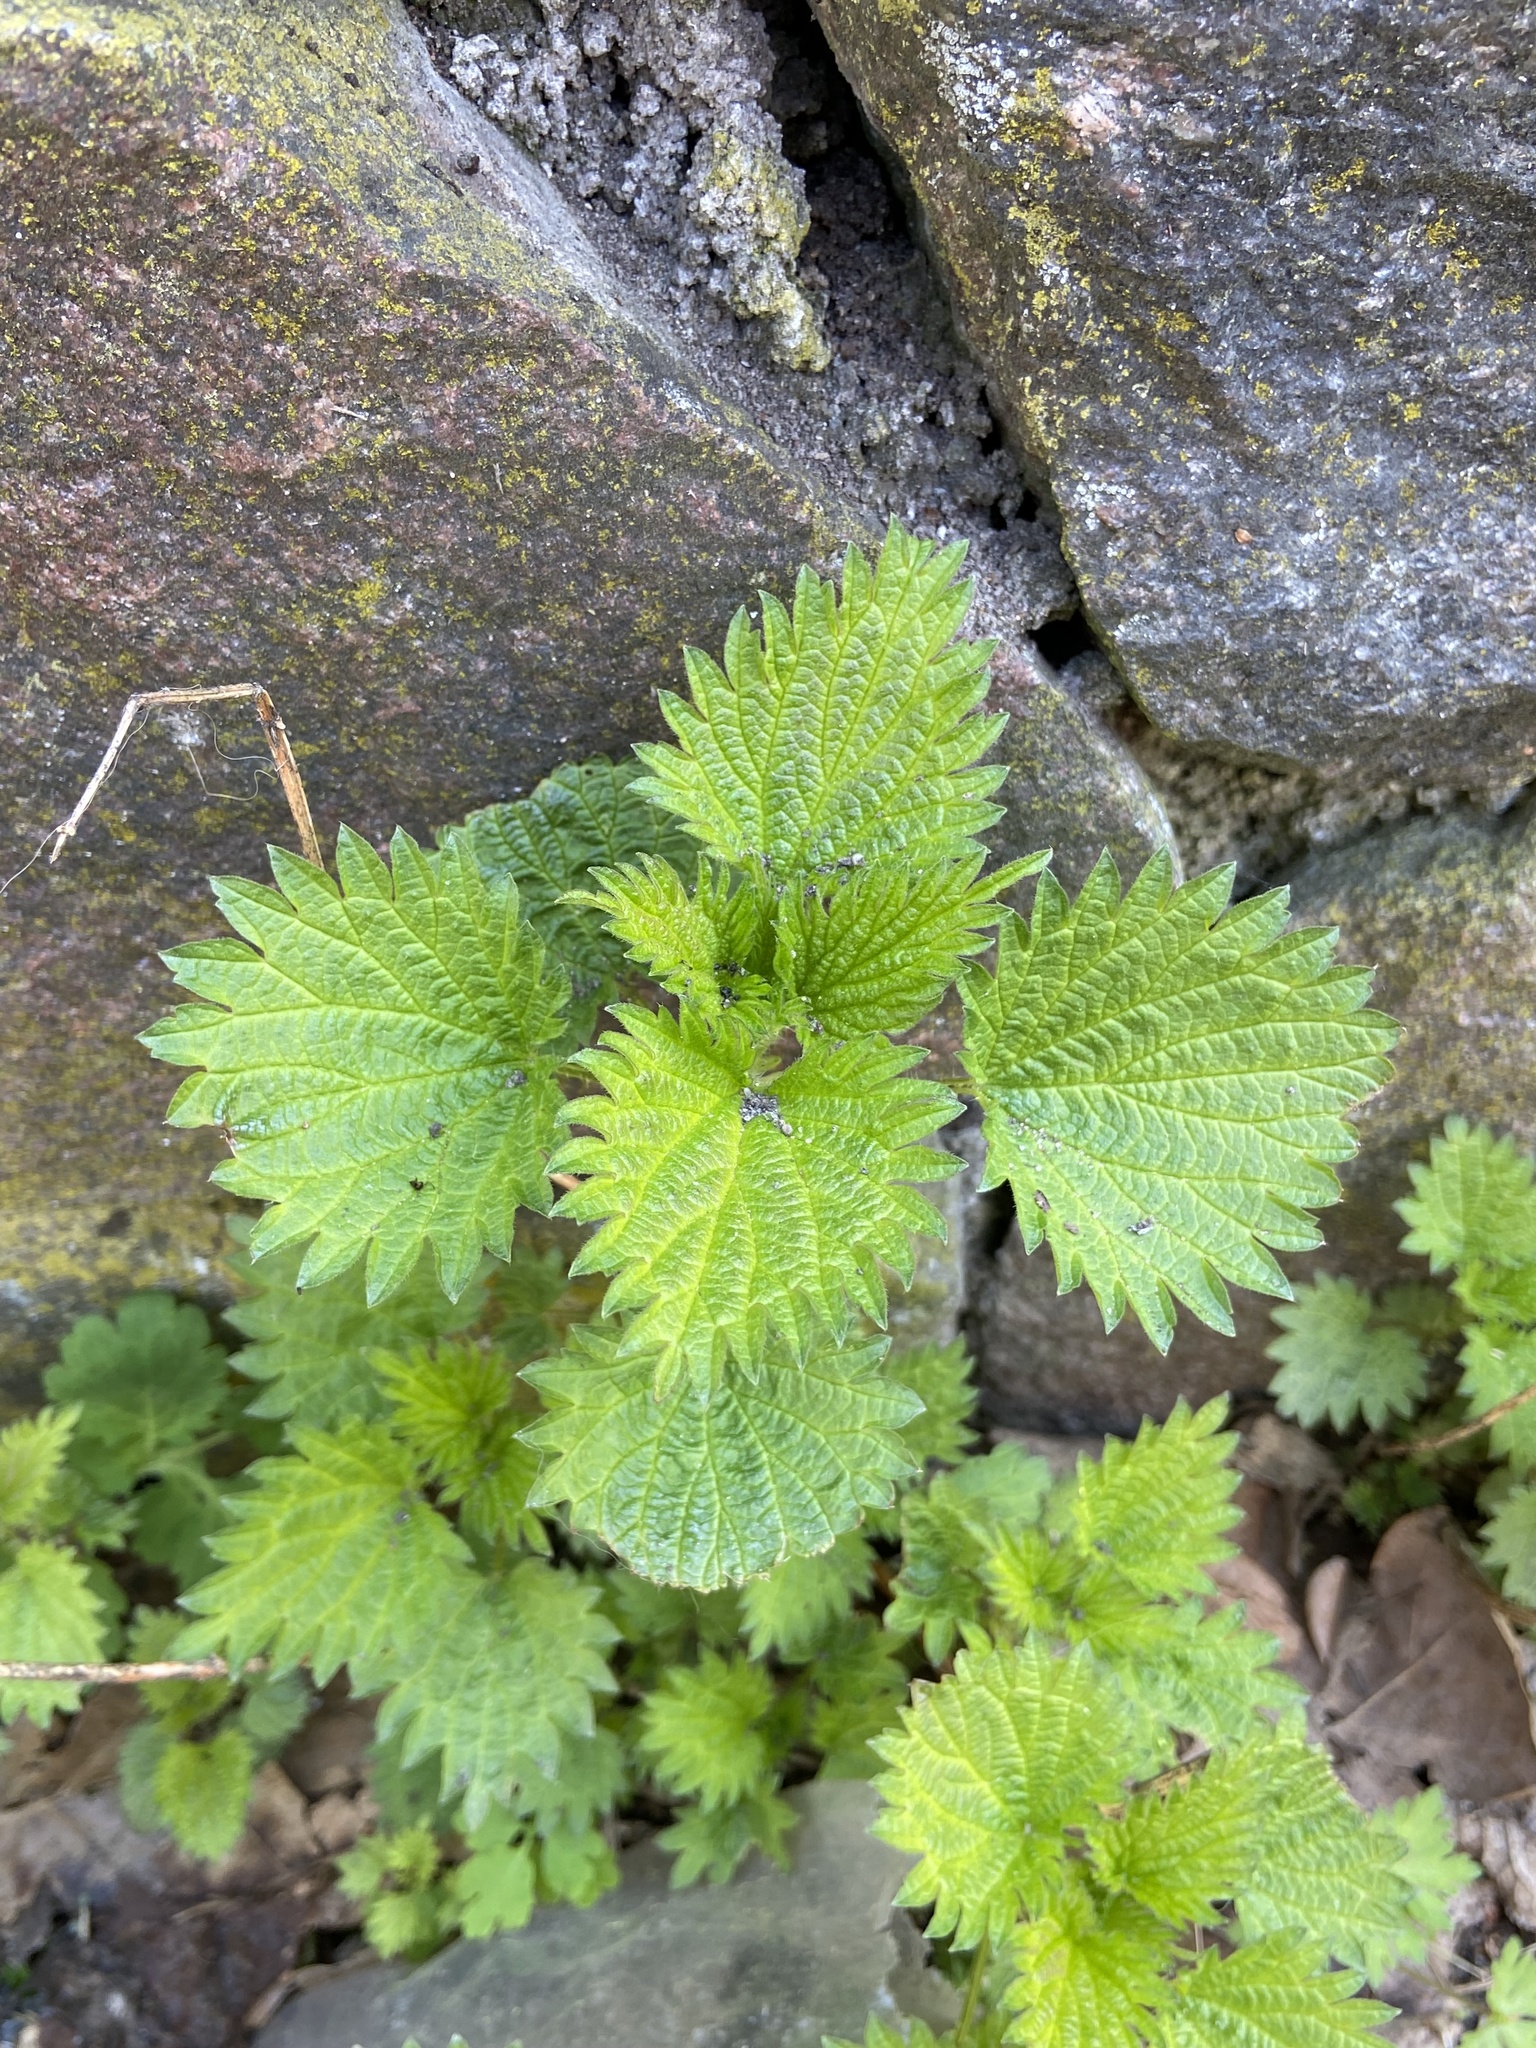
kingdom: Plantae
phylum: Tracheophyta
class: Magnoliopsida
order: Rosales
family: Urticaceae
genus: Urtica
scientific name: Urtica urens
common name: Dwarf nettle
